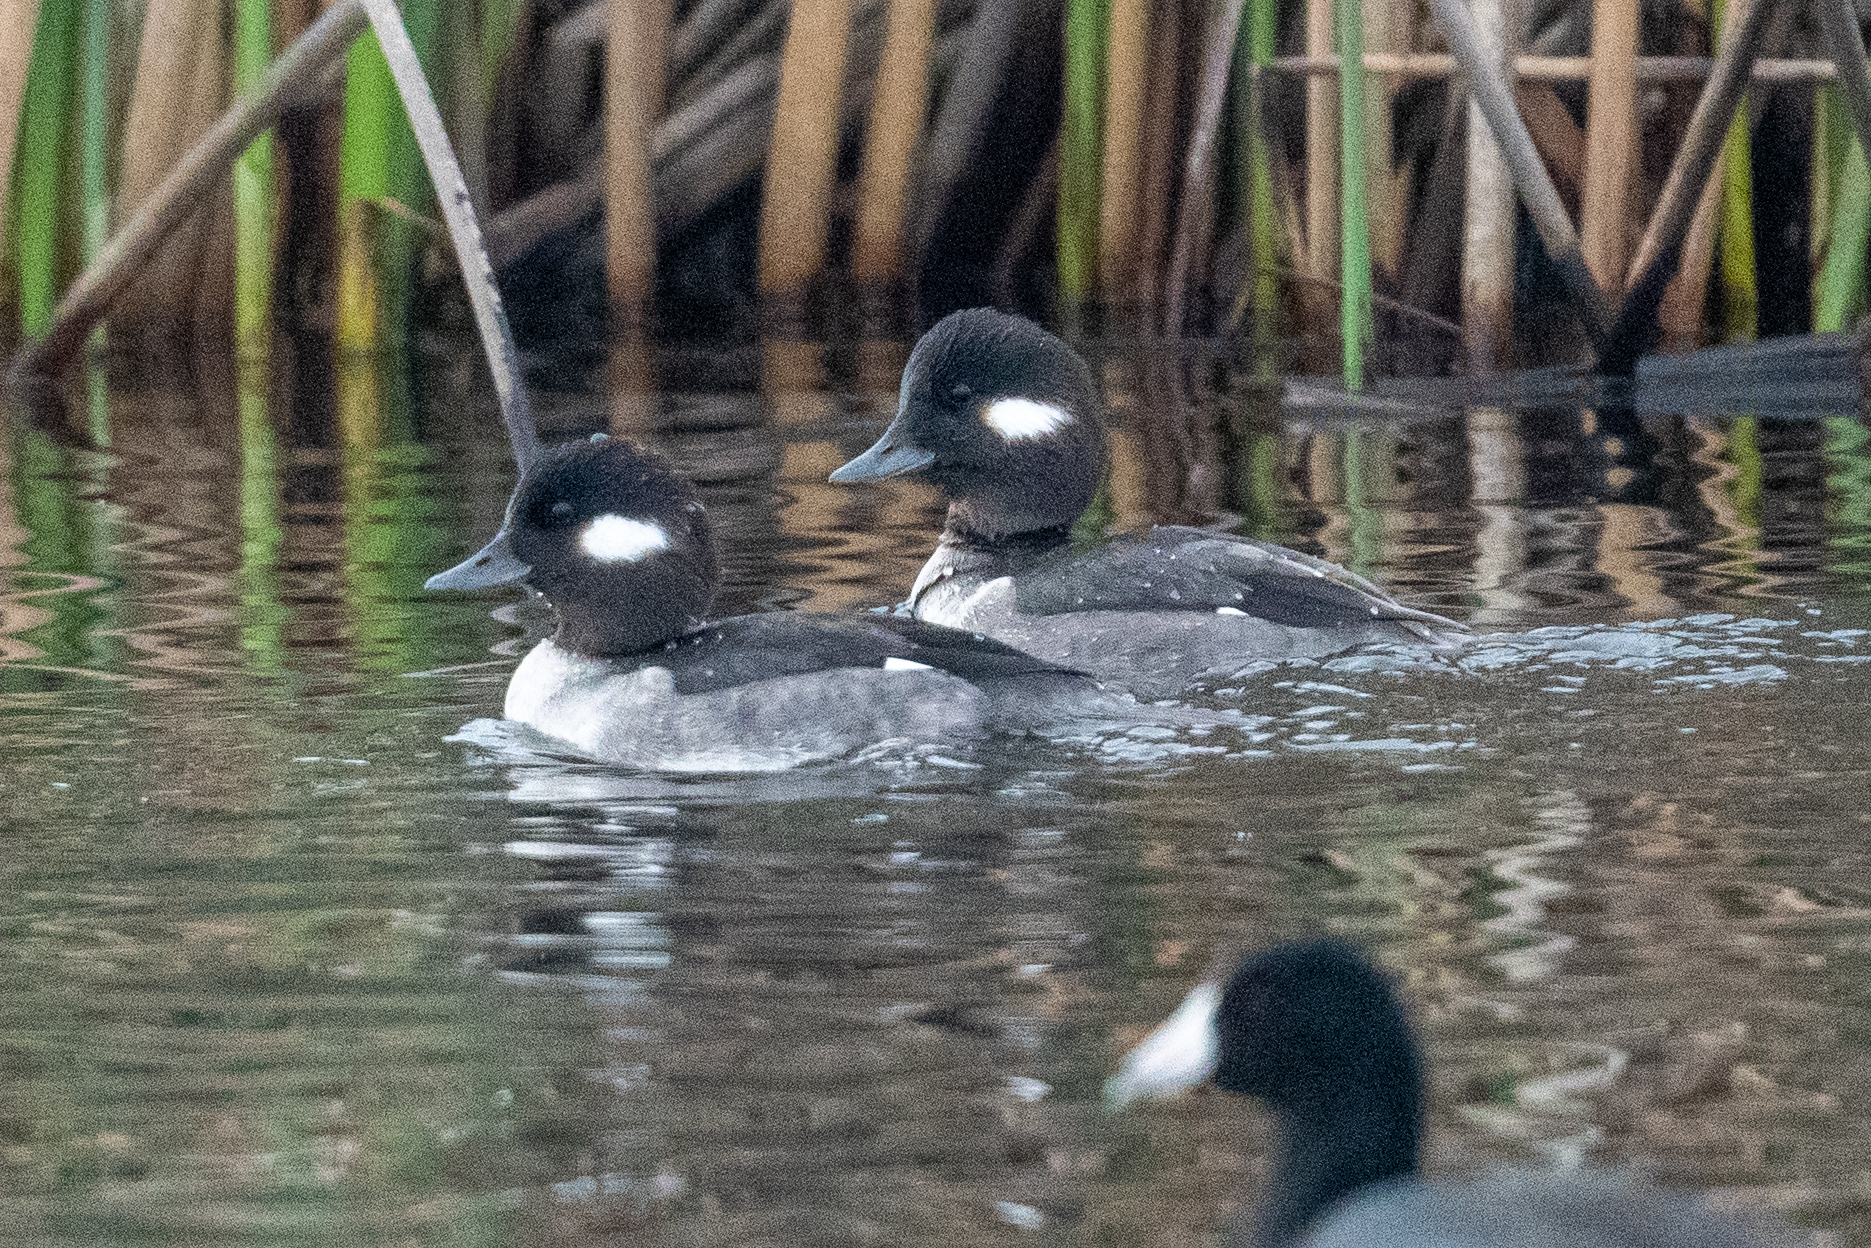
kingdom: Animalia
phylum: Chordata
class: Aves
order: Anseriformes
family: Anatidae
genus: Bucephala
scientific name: Bucephala albeola
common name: Bufflehead
